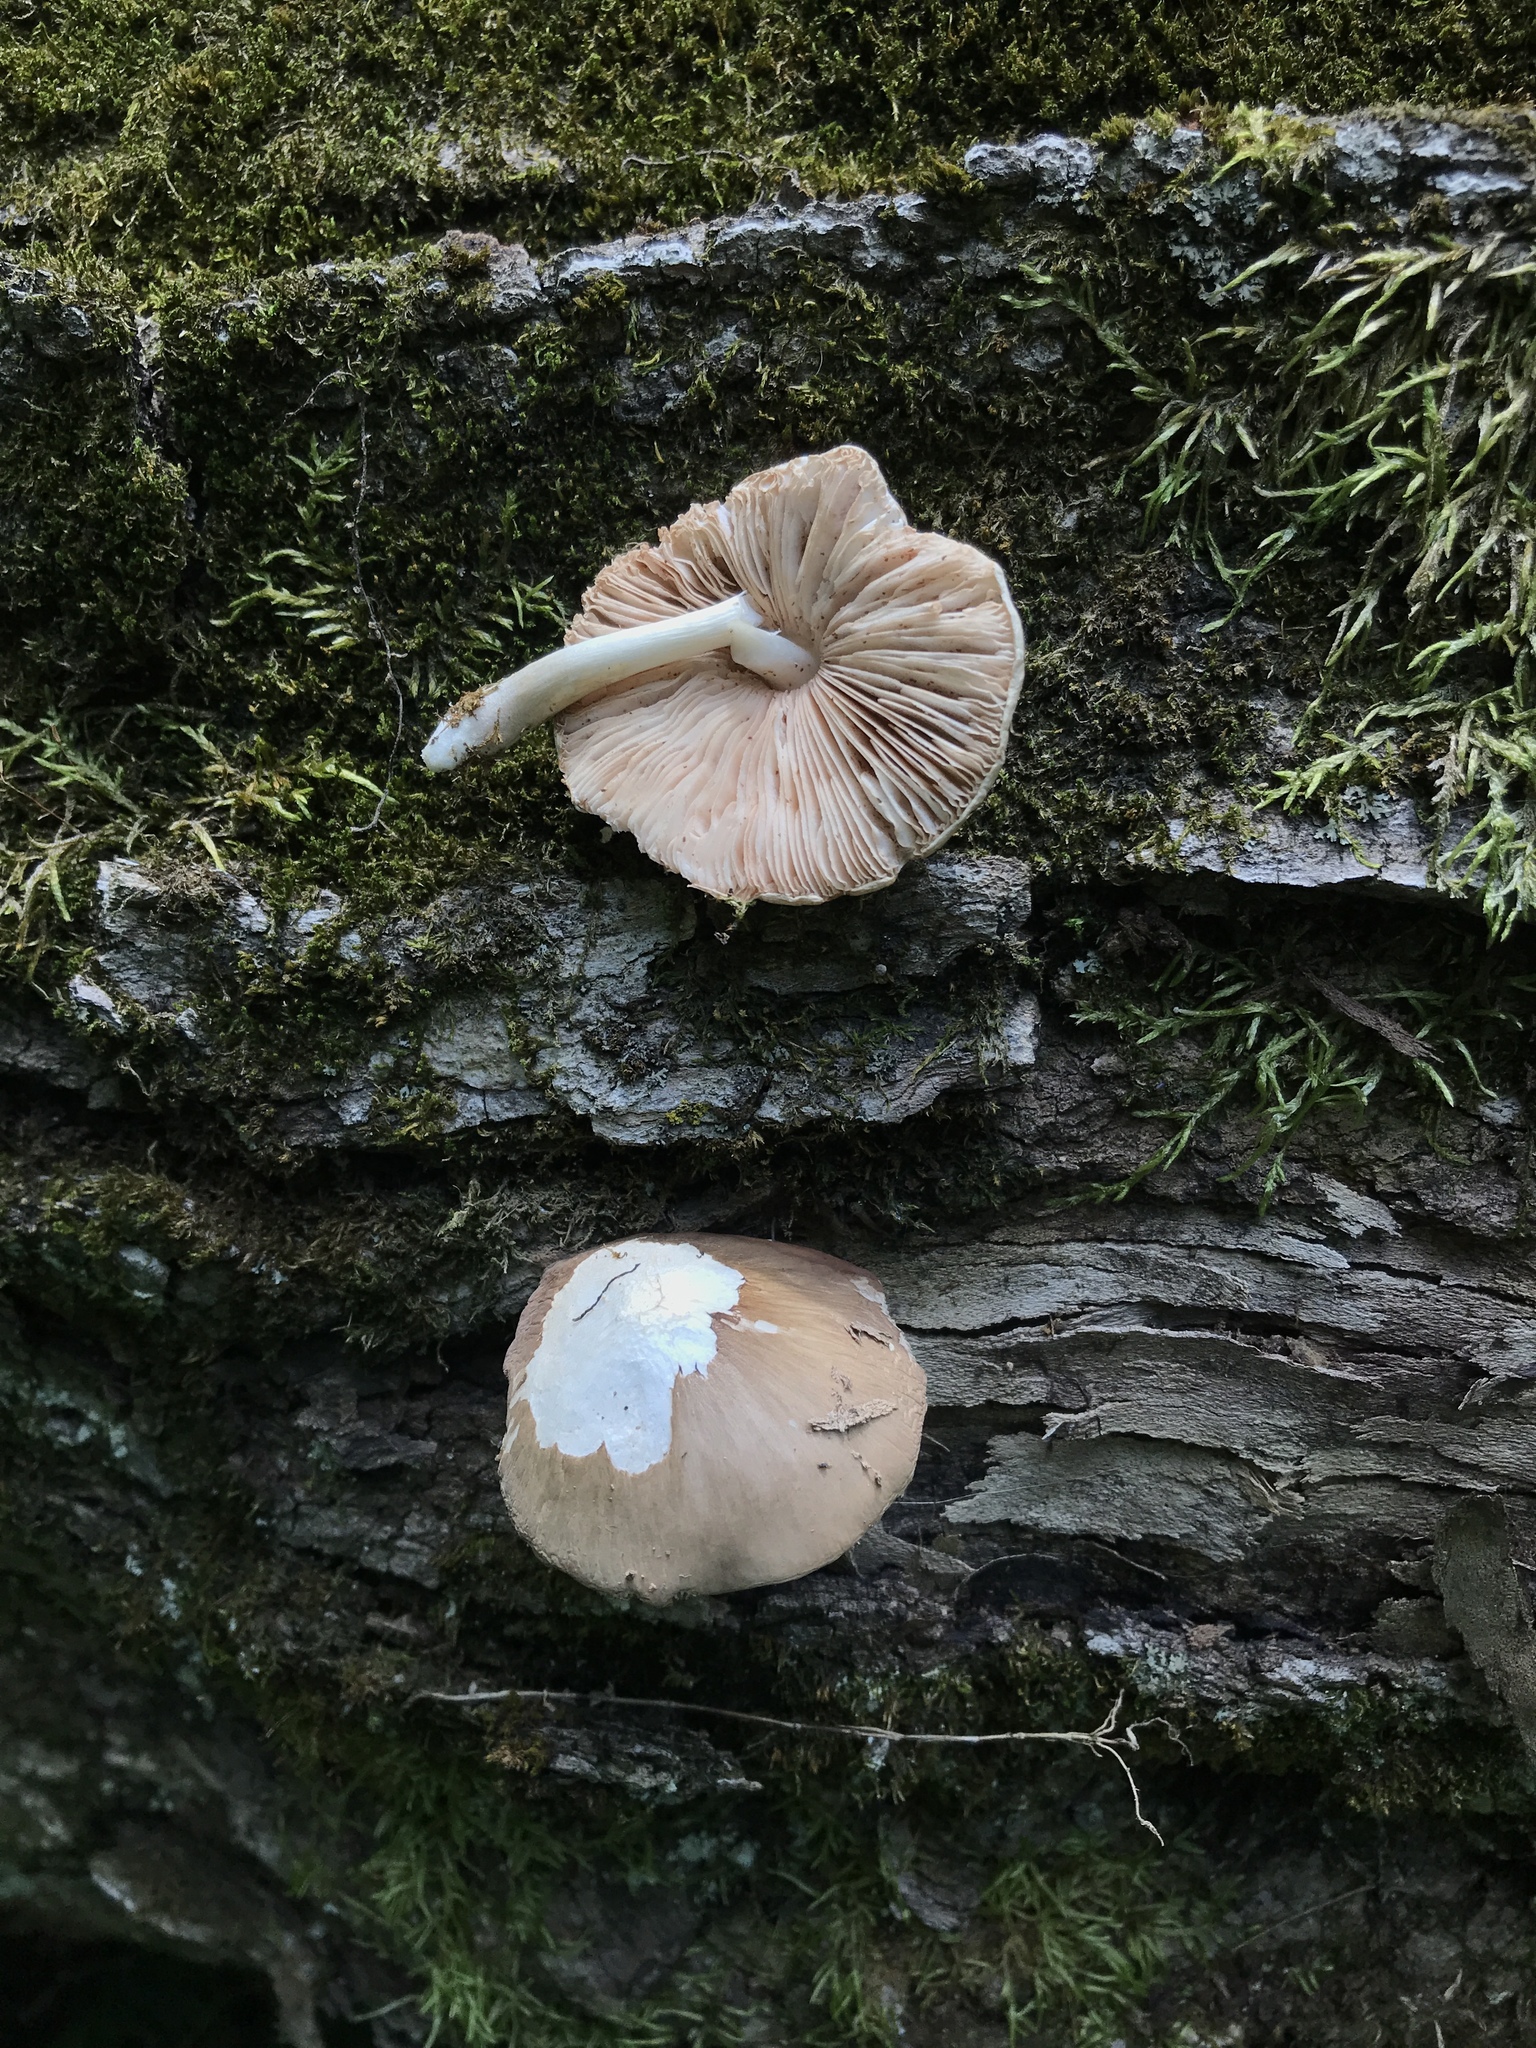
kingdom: Fungi
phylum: Basidiomycota
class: Agaricomycetes
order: Agaricales
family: Pluteaceae
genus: Pluteus
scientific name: Pluteus petasatus
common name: Scaly shield
